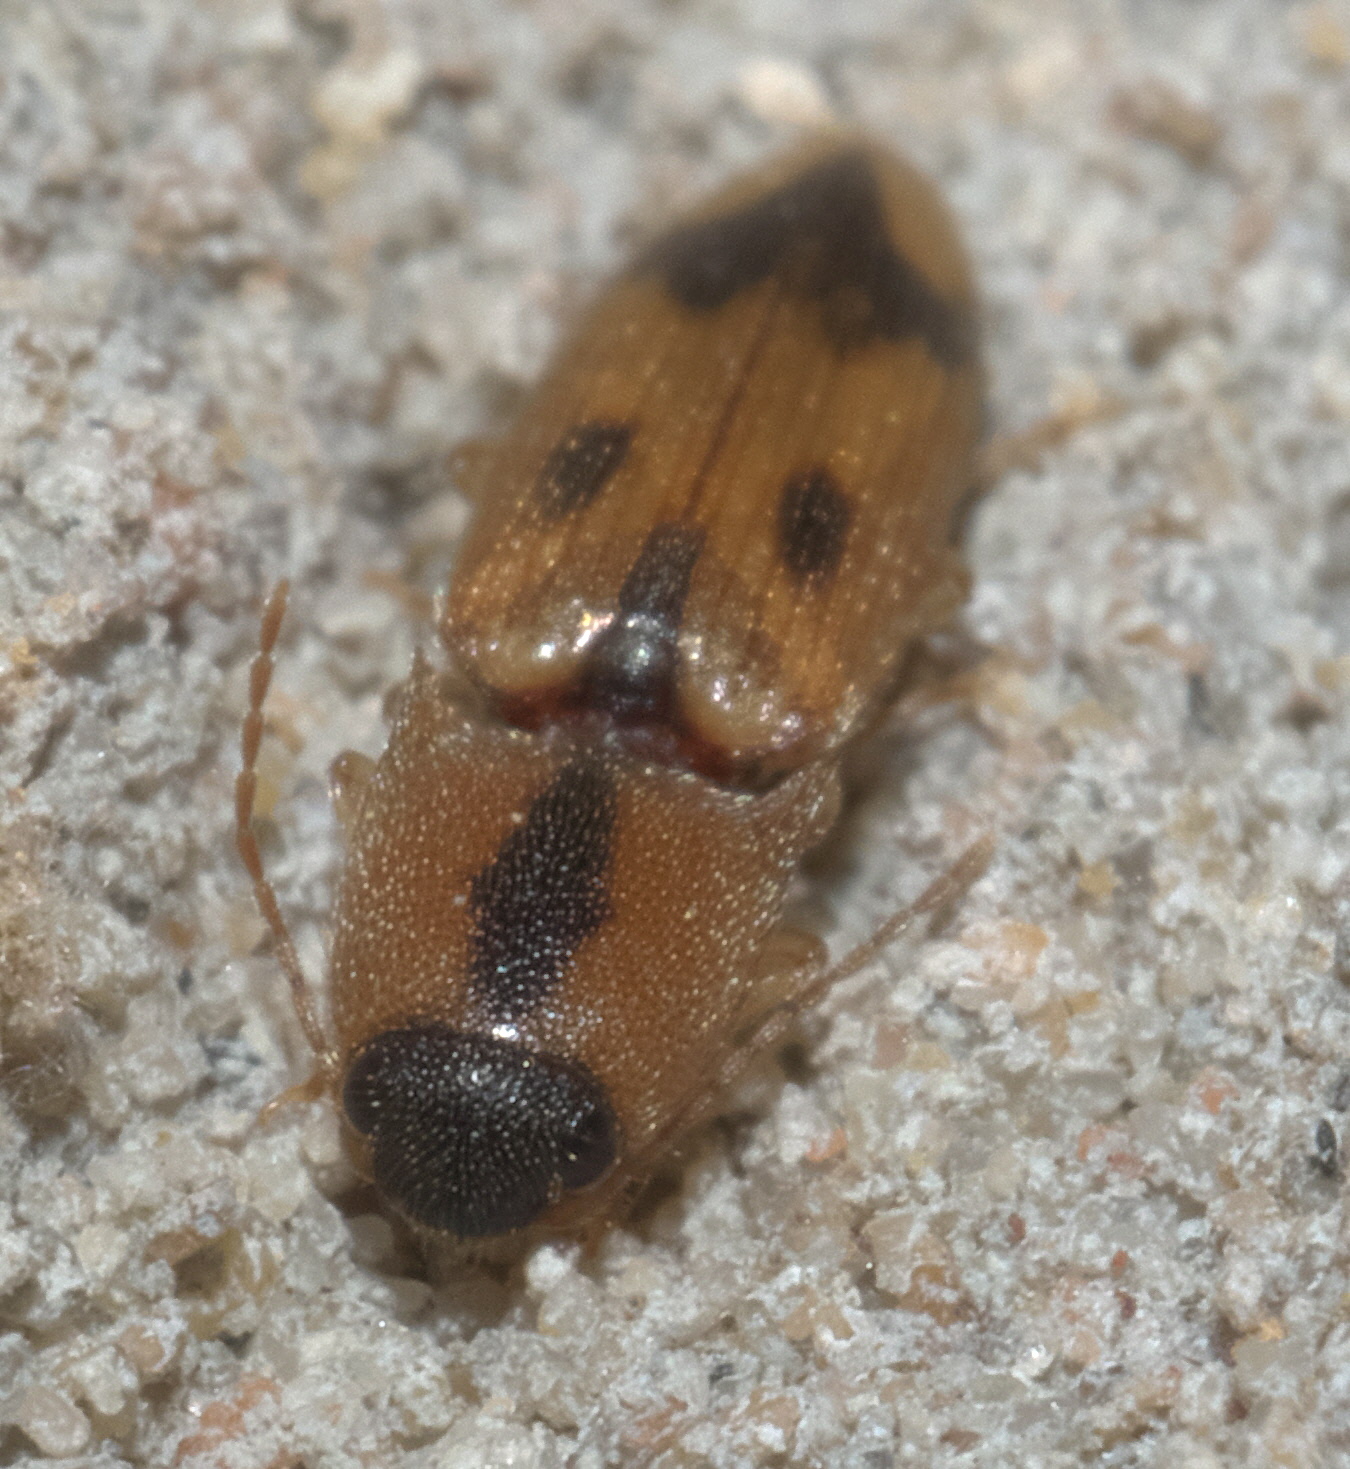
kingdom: Animalia
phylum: Arthropoda
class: Insecta
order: Coleoptera
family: Elateridae
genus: Aeolus
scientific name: Aeolus mellillus
